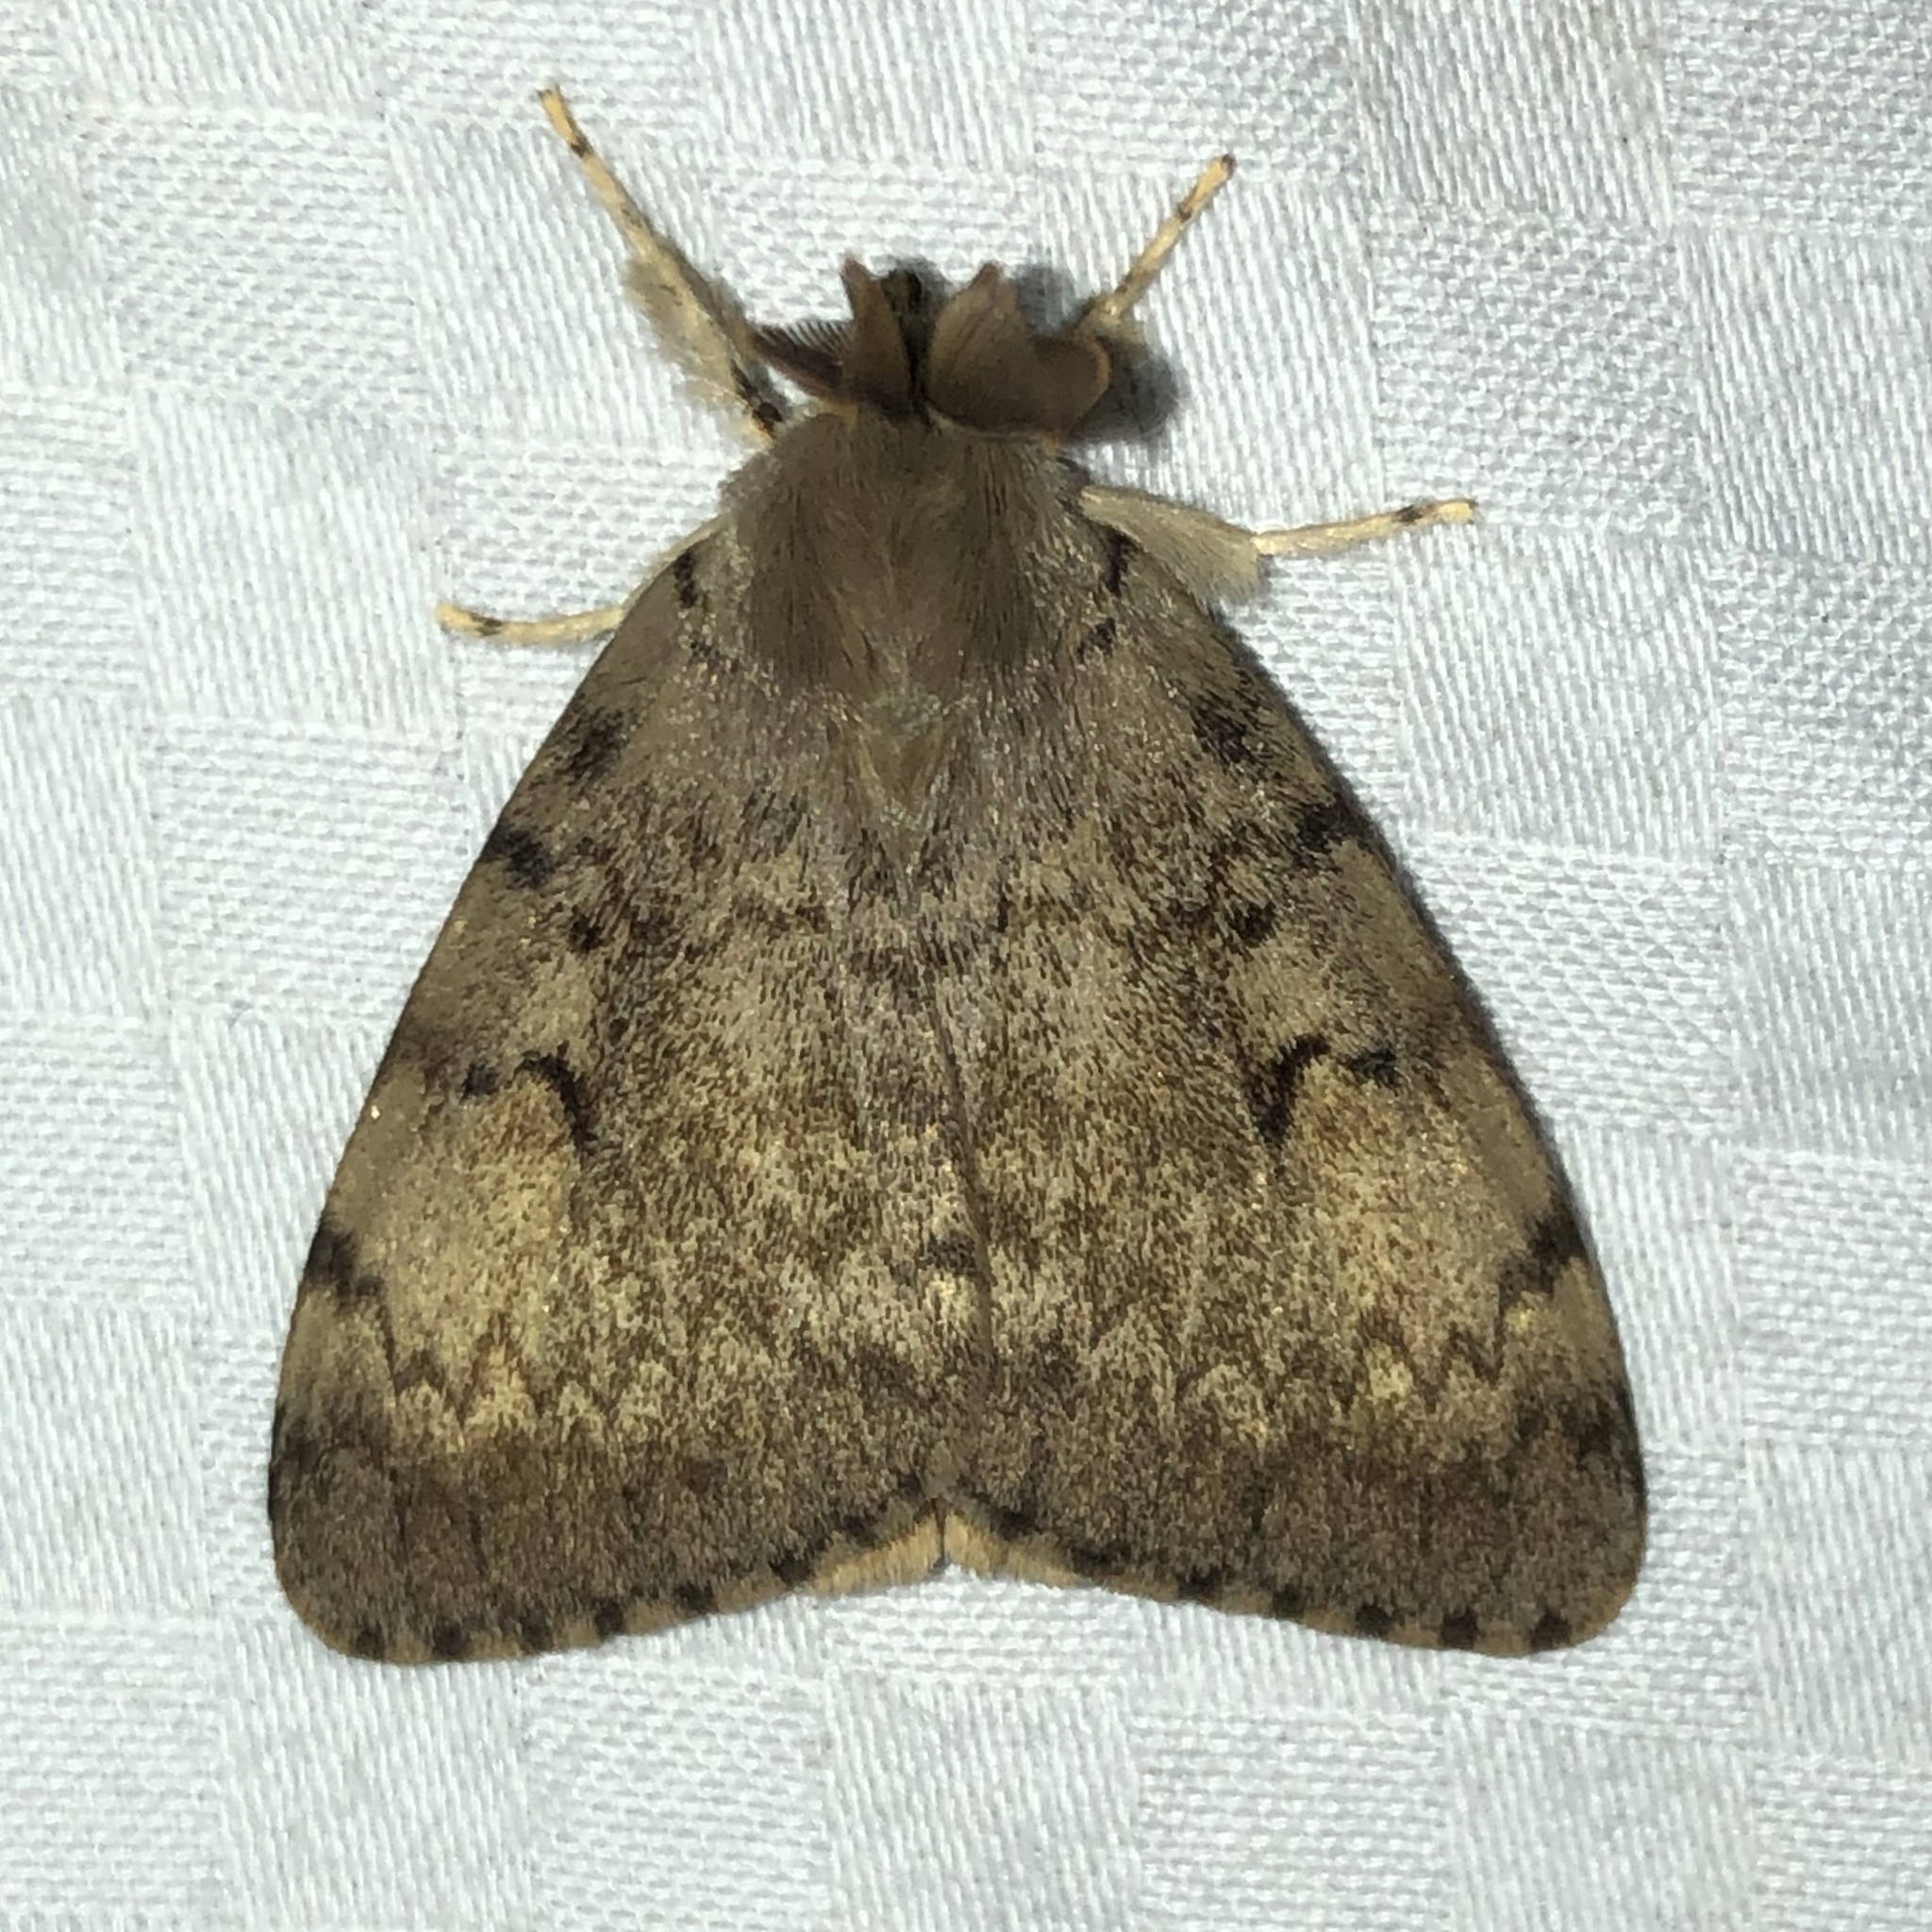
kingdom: Animalia
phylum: Arthropoda
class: Insecta
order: Lepidoptera
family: Erebidae
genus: Lymantria
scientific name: Lymantria dispar
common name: Gypsy moth
